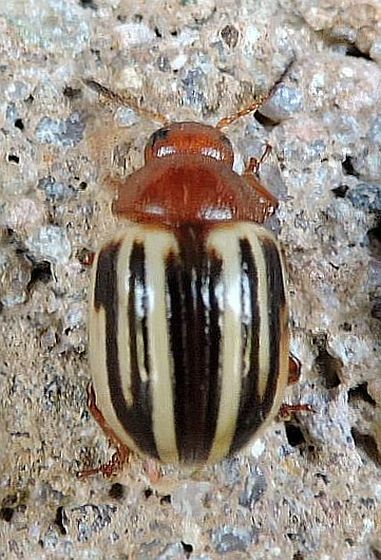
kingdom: Animalia
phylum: Arthropoda
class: Insecta
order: Coleoptera
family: Chrysomelidae
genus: Leptinotarsa
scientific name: Leptinotarsa peninsularis
